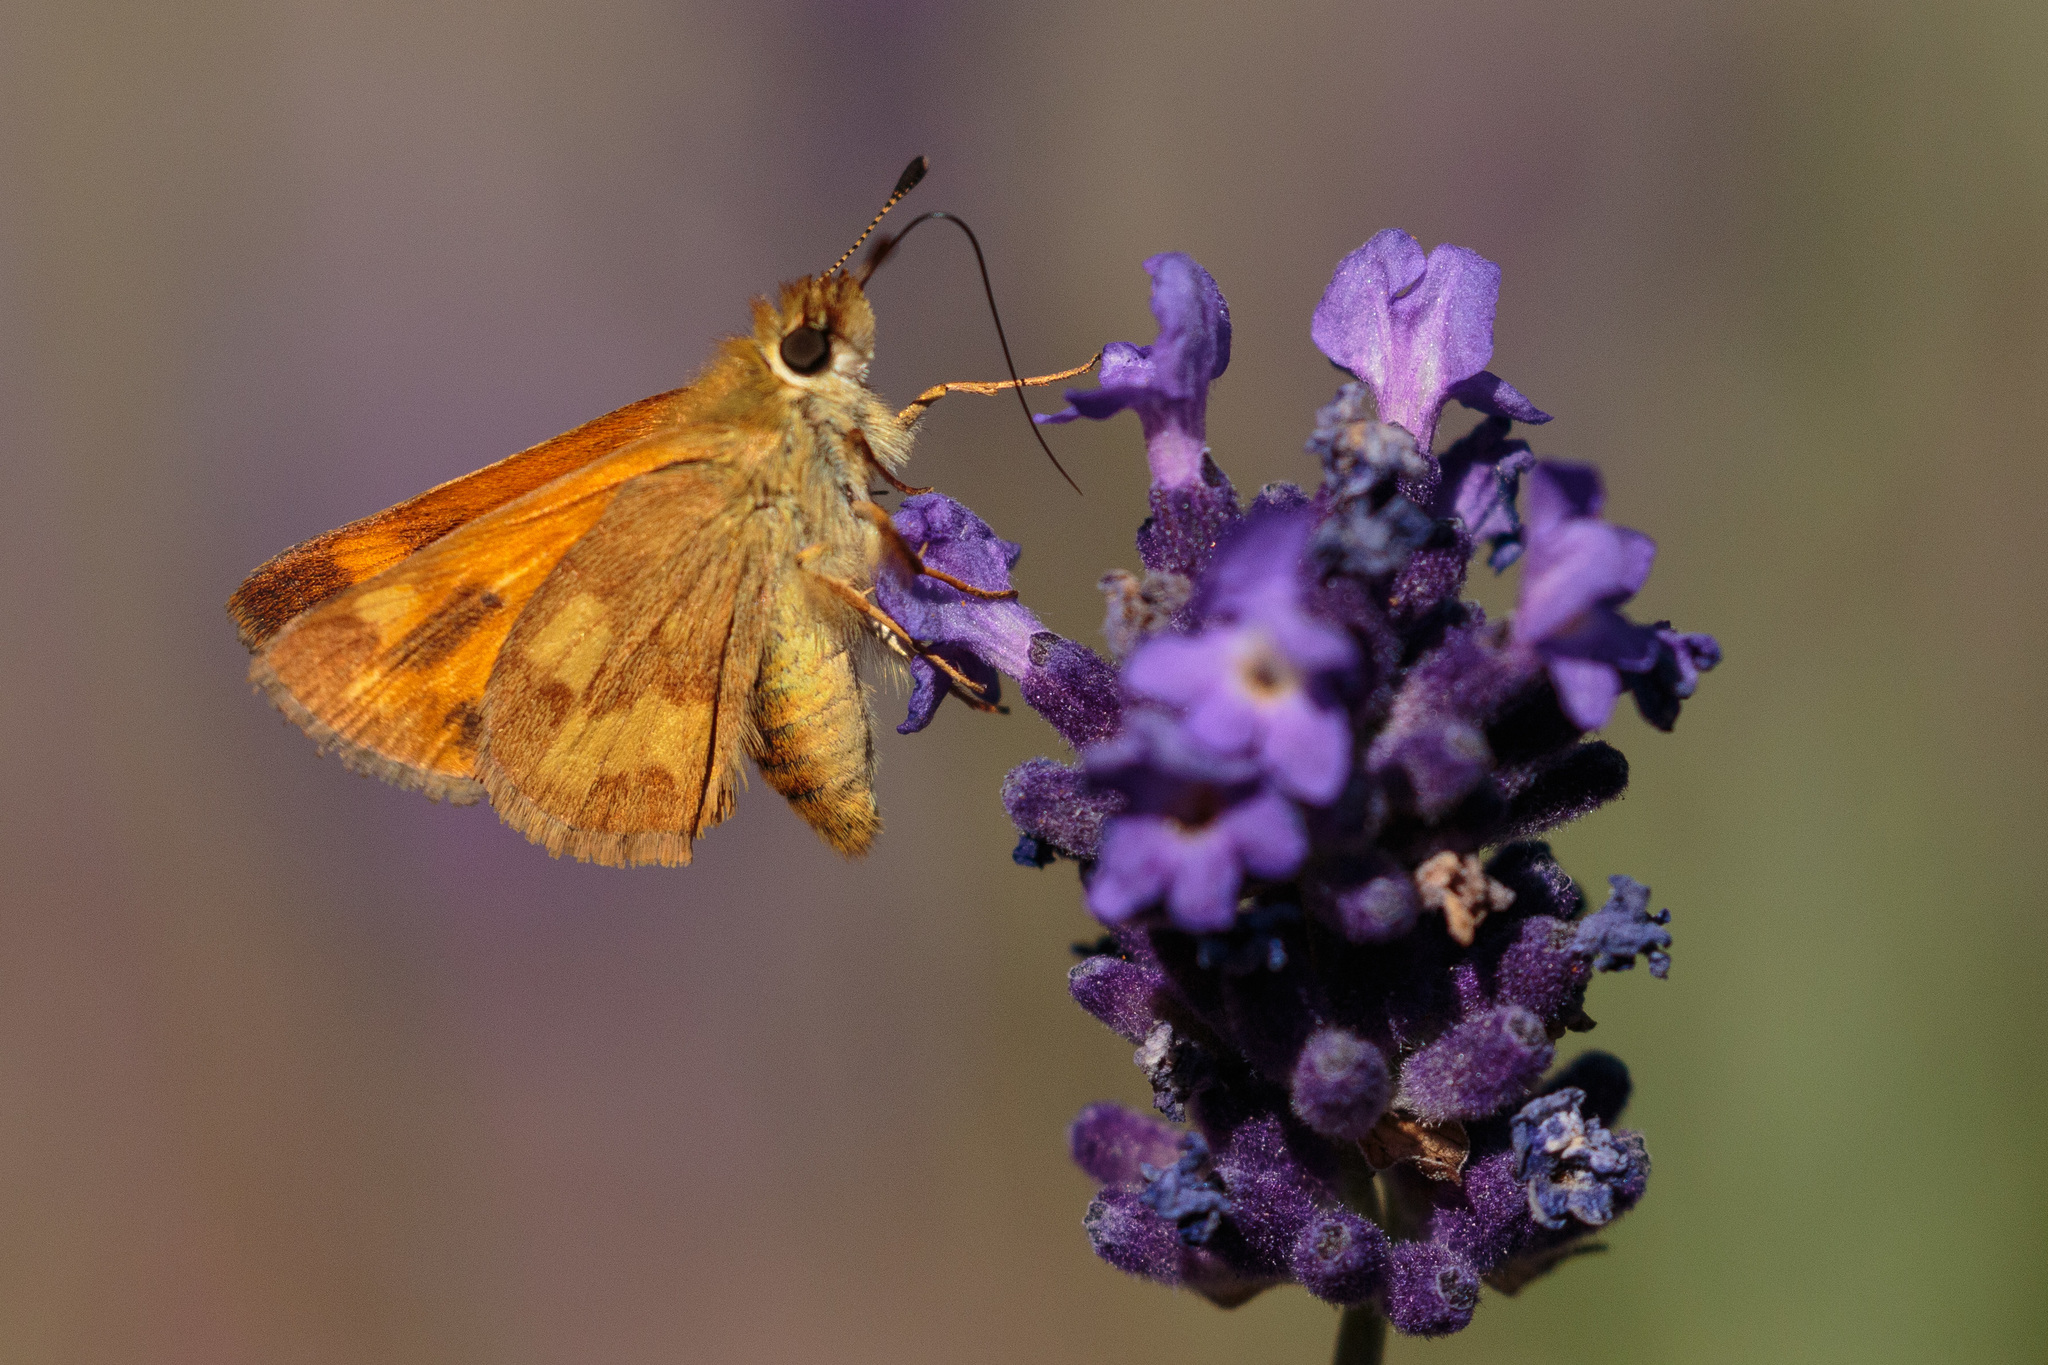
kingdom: Animalia
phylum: Arthropoda
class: Insecta
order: Lepidoptera
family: Hesperiidae
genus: Ochlodes
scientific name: Ochlodes sylvanoides
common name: Woodland skipper
